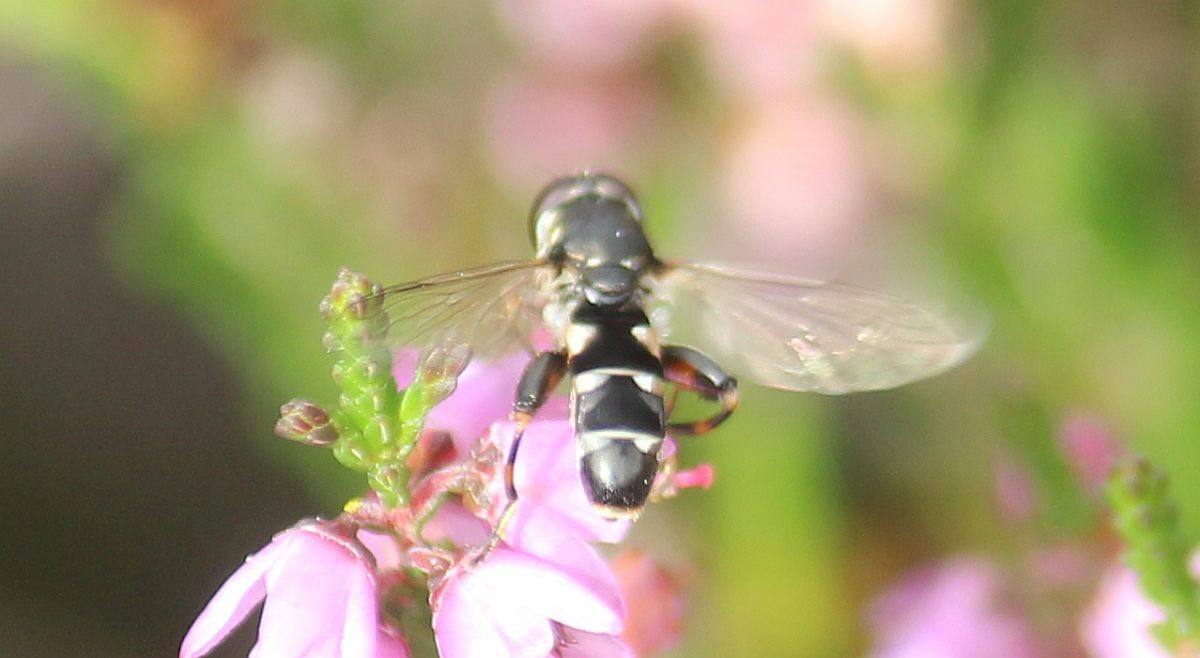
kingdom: Animalia
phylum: Arthropoda
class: Insecta
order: Diptera
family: Syrphidae
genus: Syritta
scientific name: Syritta pipiens
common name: Hover fly
